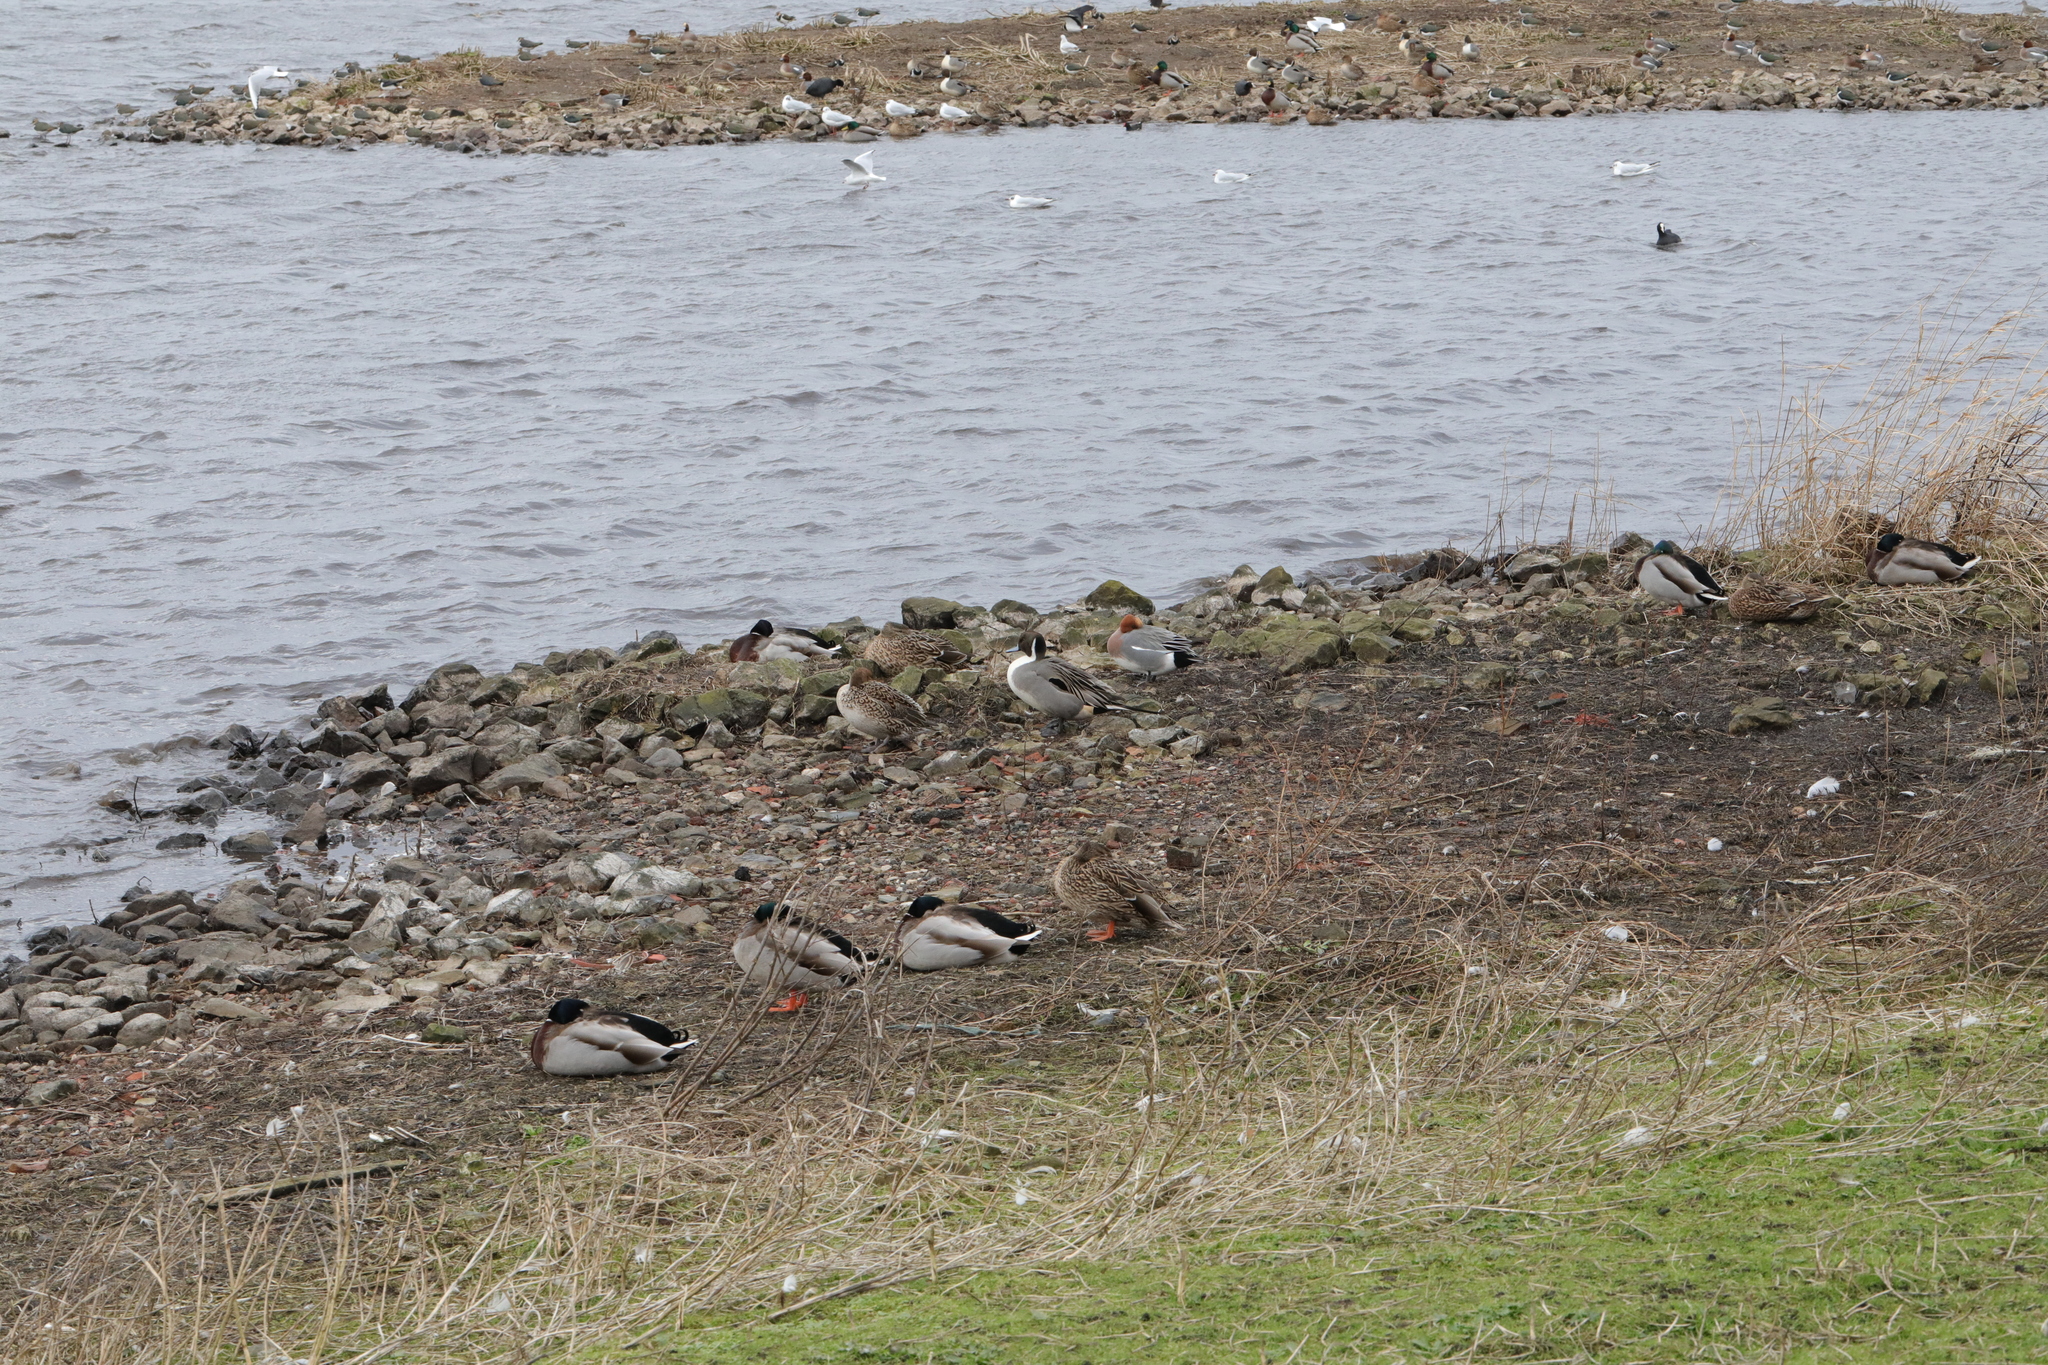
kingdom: Animalia
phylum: Chordata
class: Aves
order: Anseriformes
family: Anatidae
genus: Anas
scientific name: Anas acuta
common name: Northern pintail
